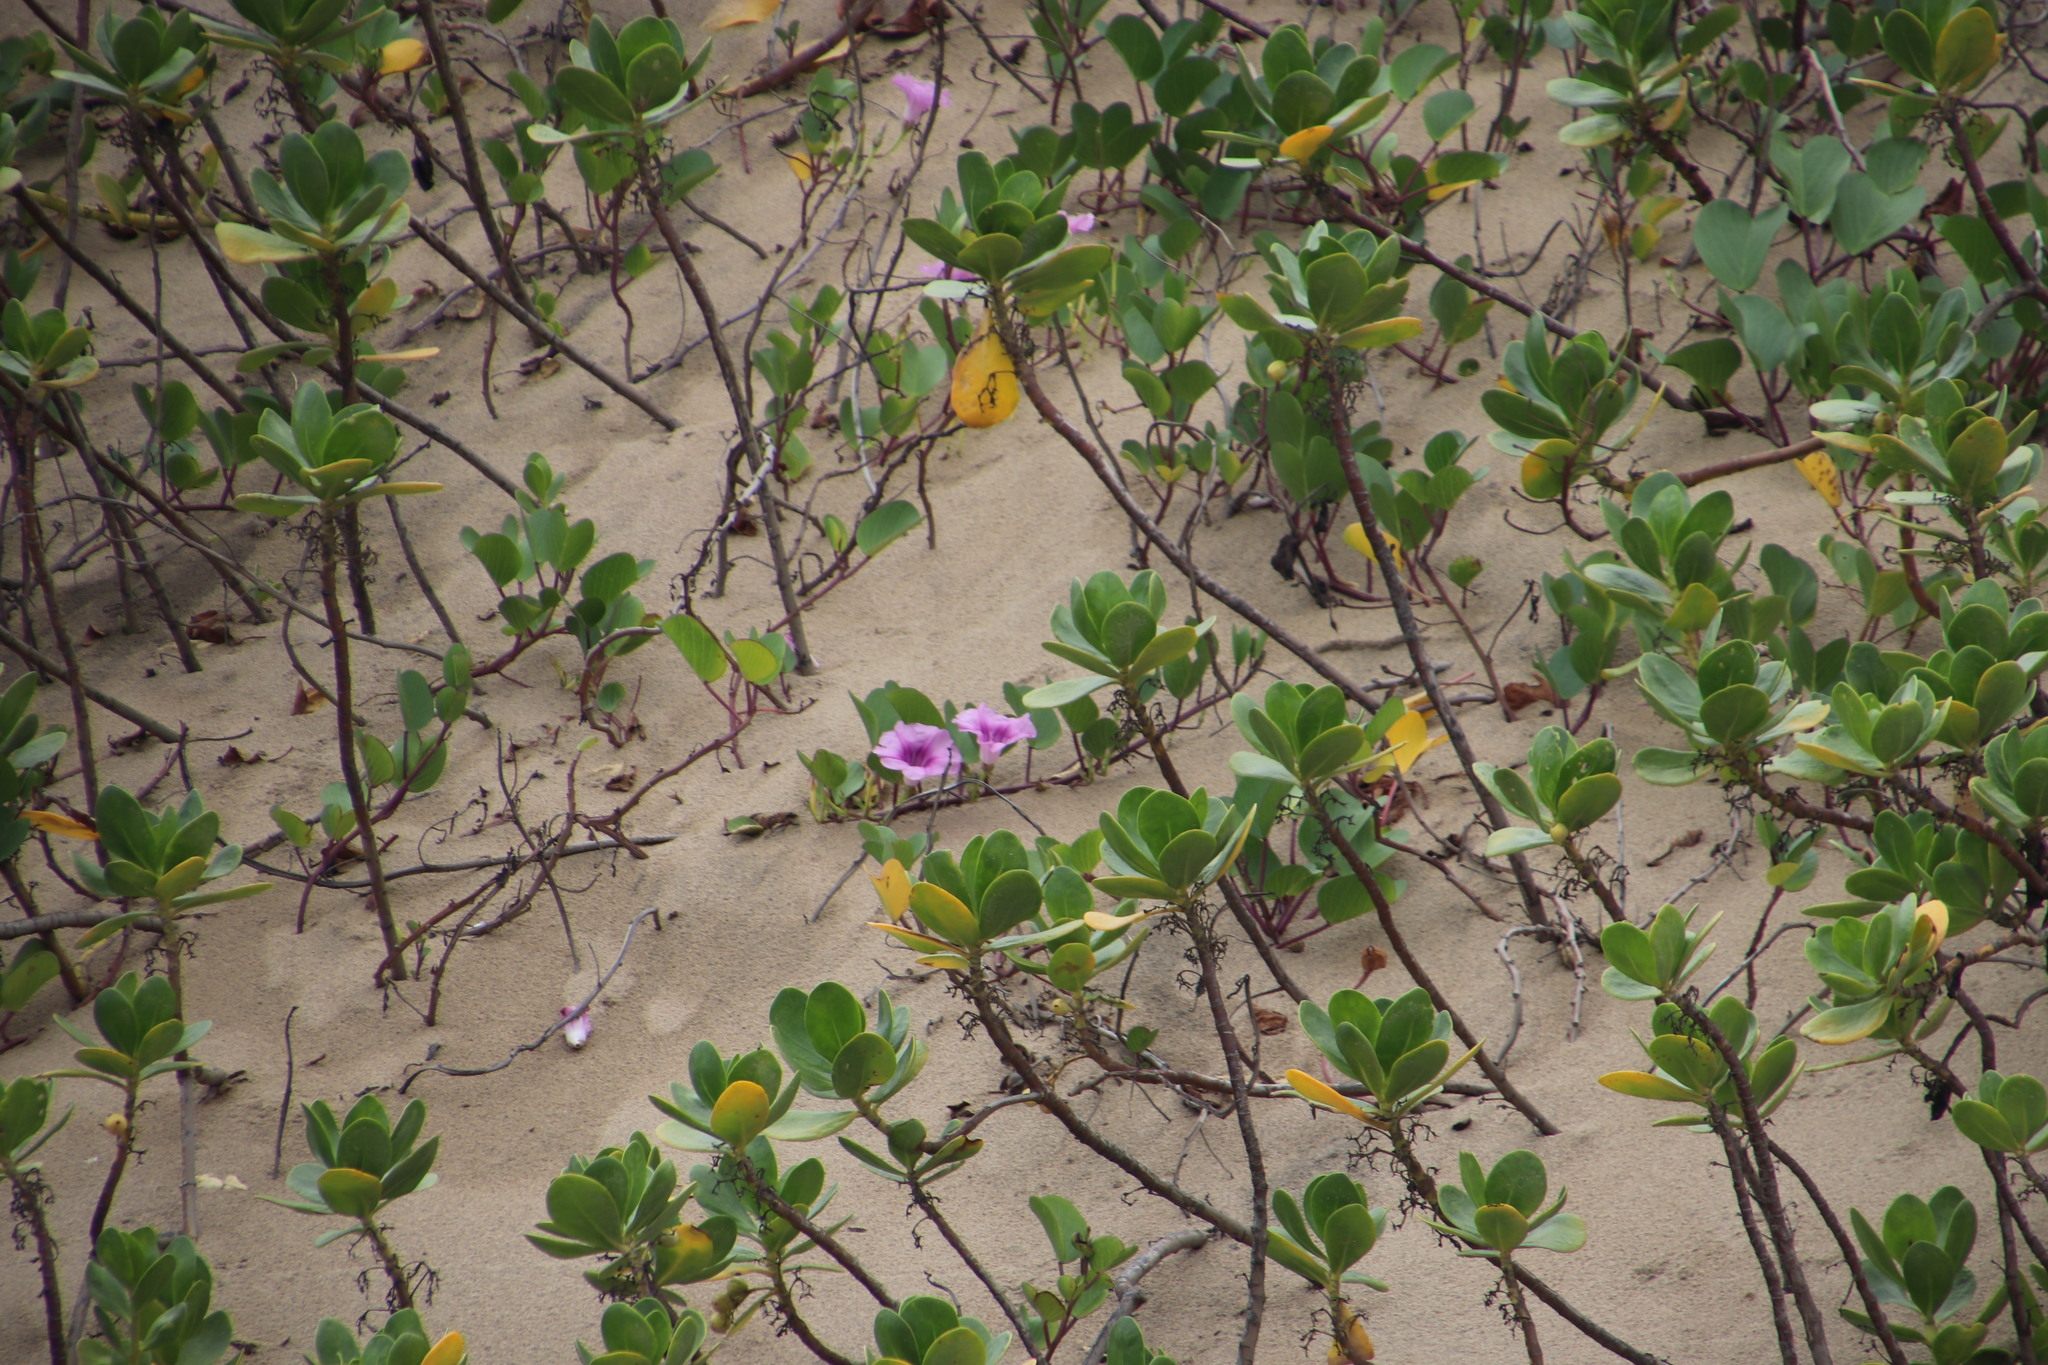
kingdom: Plantae
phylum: Tracheophyta
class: Magnoliopsida
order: Solanales
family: Convolvulaceae
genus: Ipomoea
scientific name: Ipomoea pes-caprae
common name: Beach morning glory
